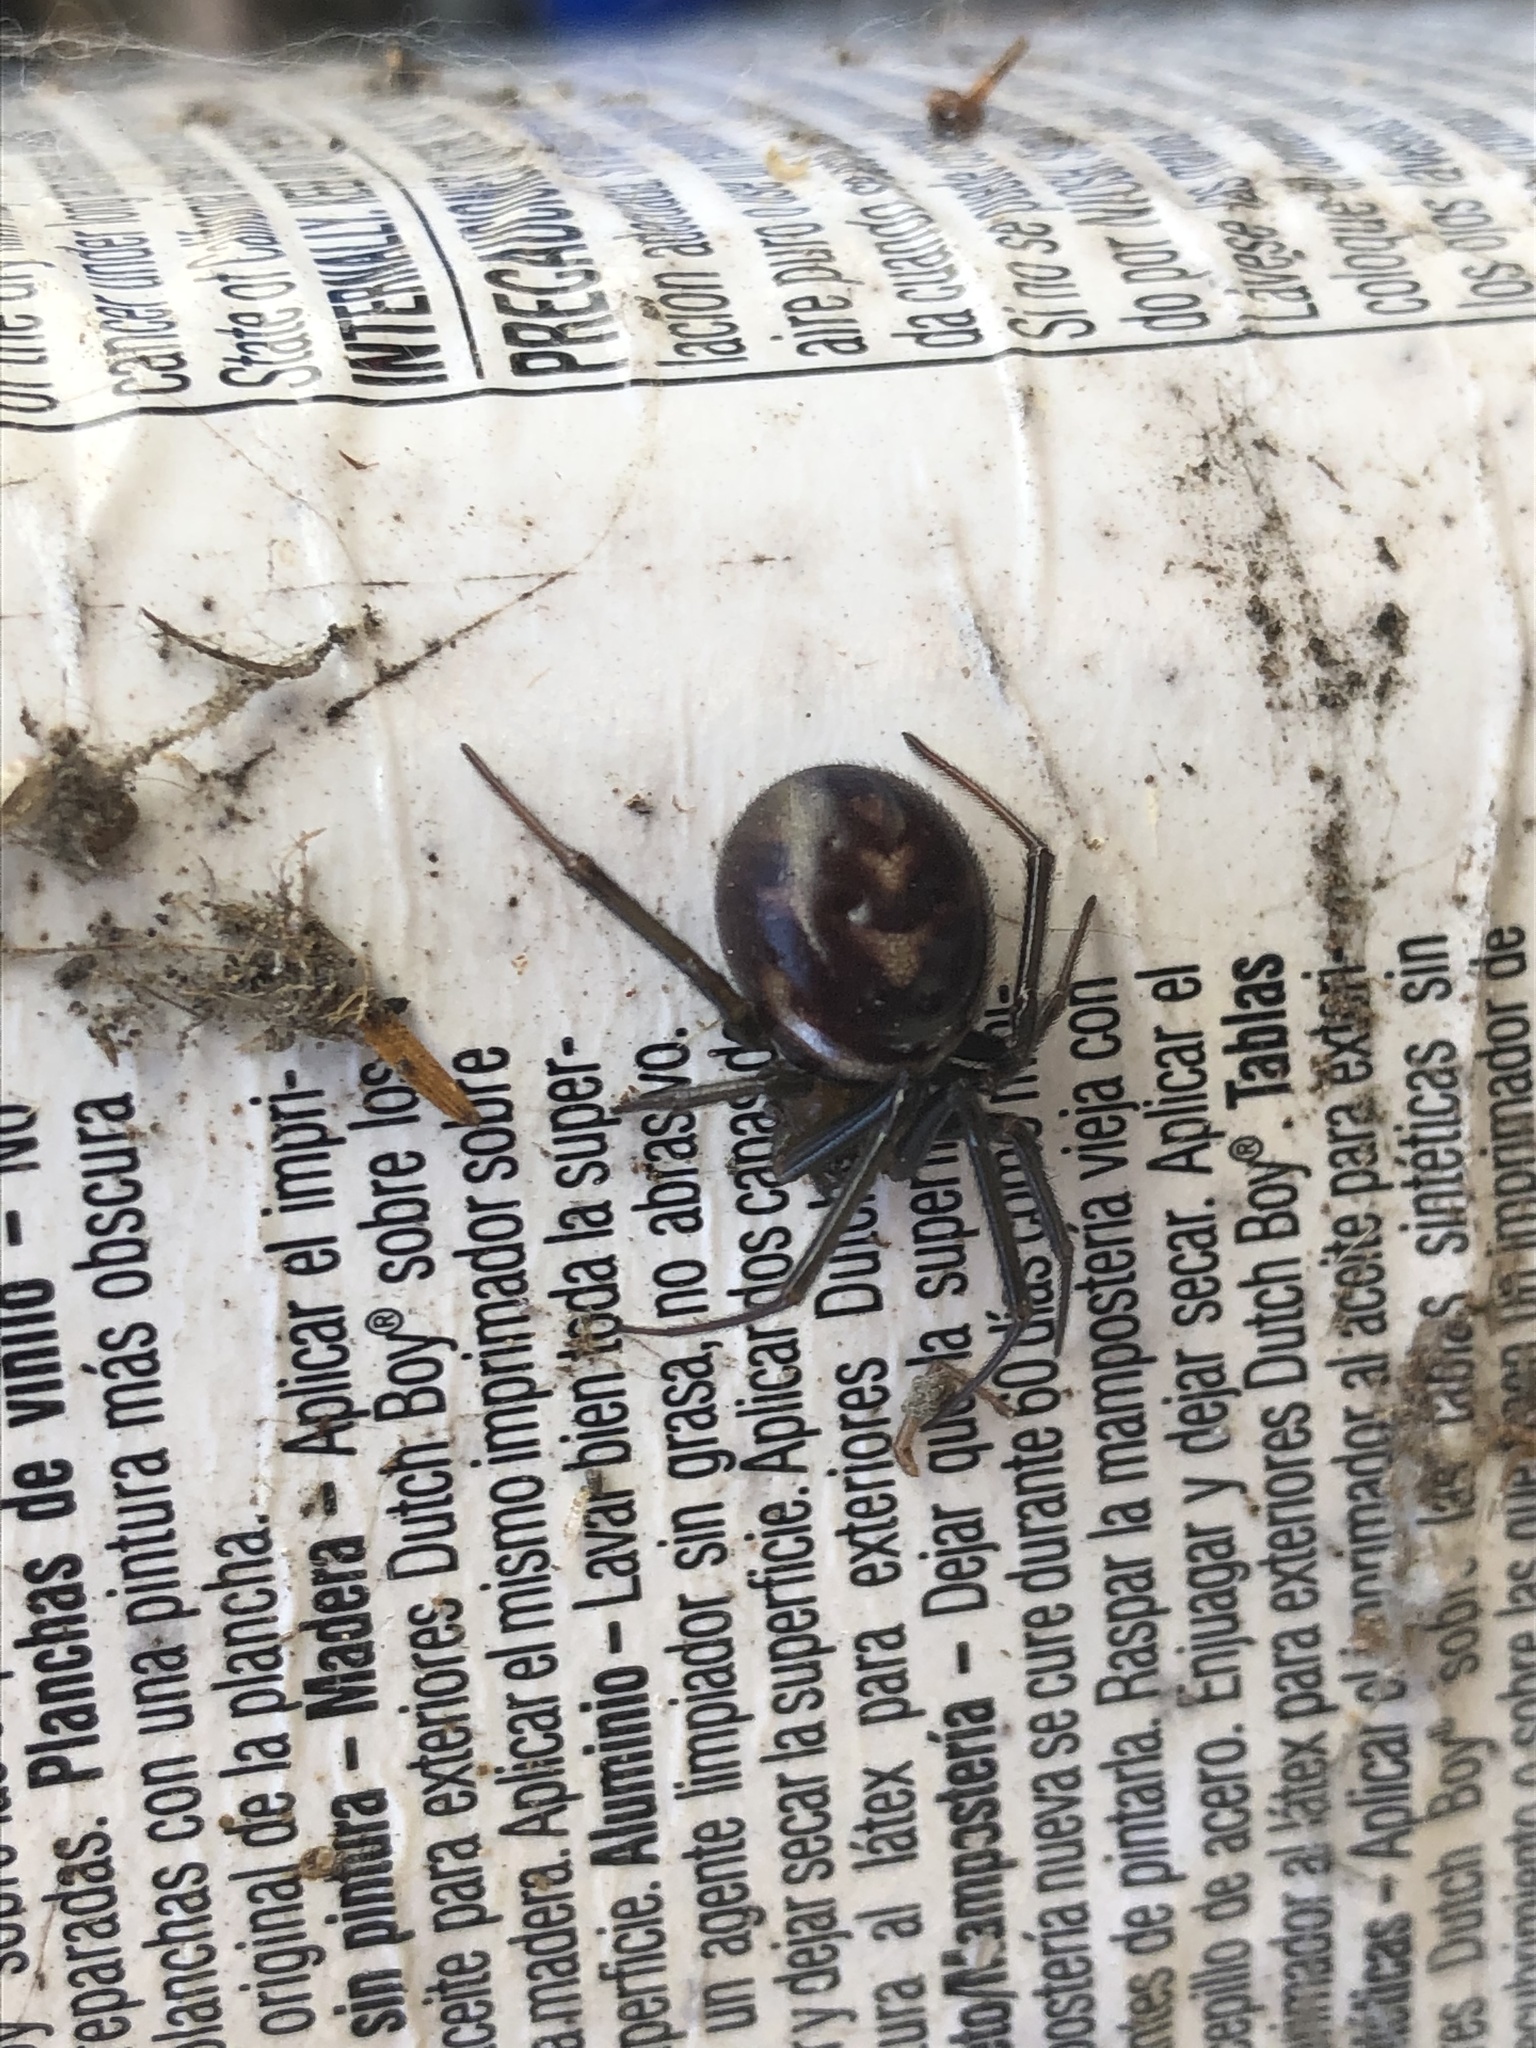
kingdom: Animalia
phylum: Arthropoda
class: Arachnida
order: Araneae
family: Theridiidae
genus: Steatoda
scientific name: Steatoda grossa
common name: False black widow
